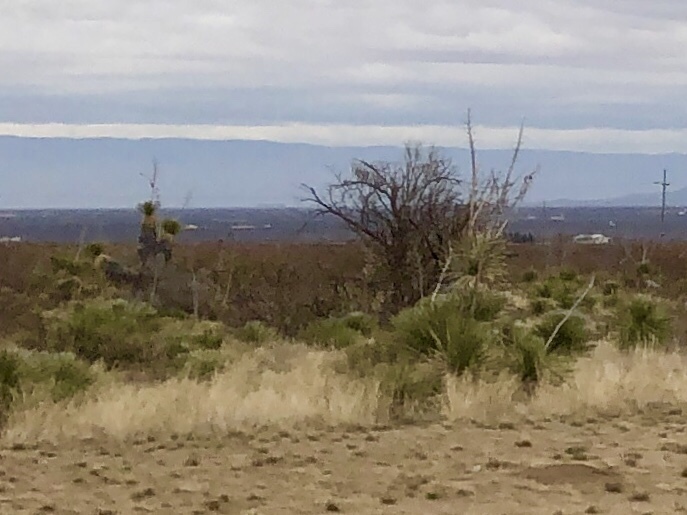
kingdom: Plantae
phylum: Tracheophyta
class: Liliopsida
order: Asparagales
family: Asparagaceae
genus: Yucca
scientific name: Yucca elata
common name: Palmella
